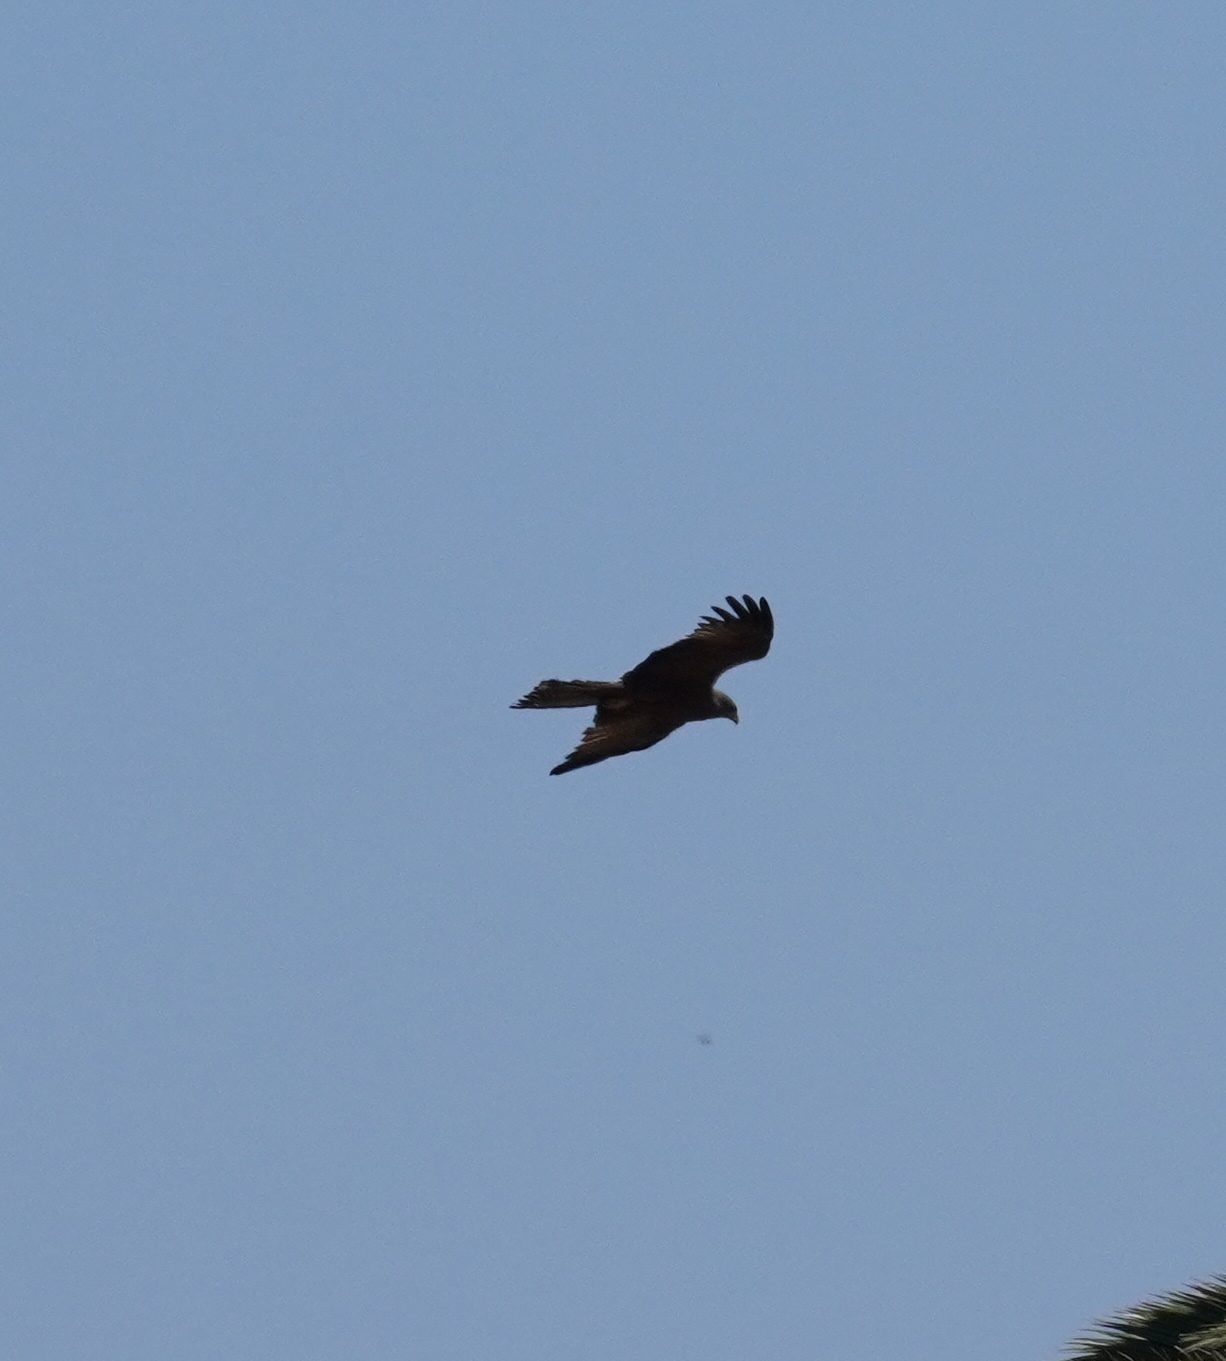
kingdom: Animalia
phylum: Chordata
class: Aves
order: Accipitriformes
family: Accipitridae
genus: Milvus
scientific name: Milvus migrans
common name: Black kite
